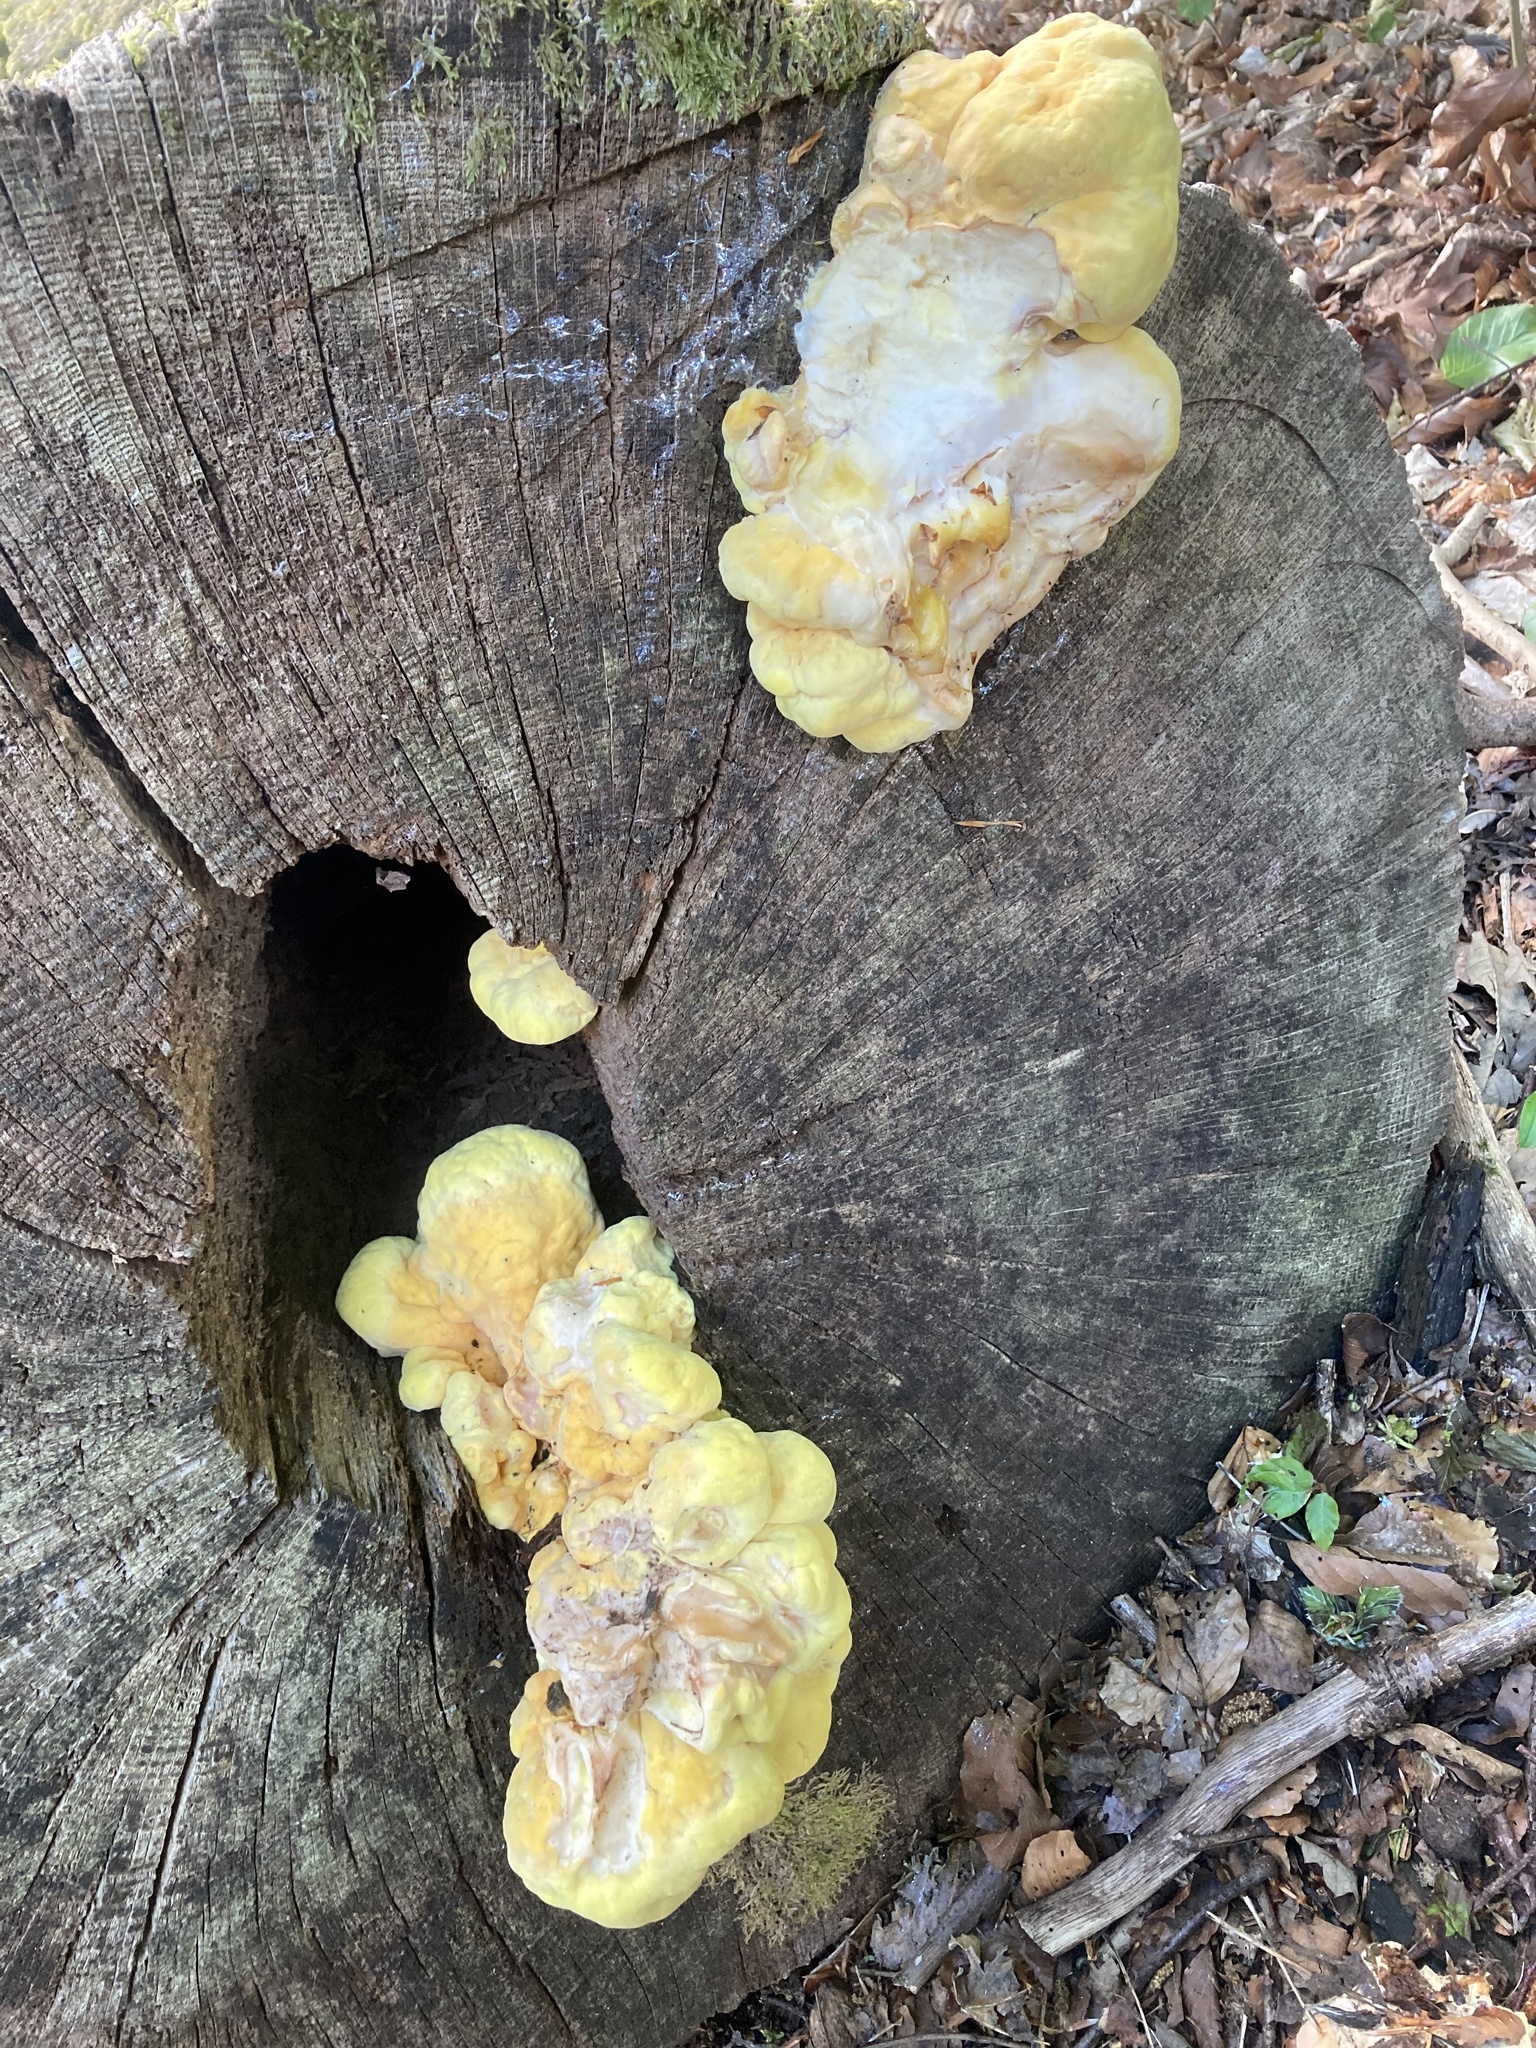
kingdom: Fungi
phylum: Basidiomycota
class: Agaricomycetes
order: Polyporales
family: Laetiporaceae
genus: Laetiporus
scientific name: Laetiporus sulphureus
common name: Chicken of the woods
